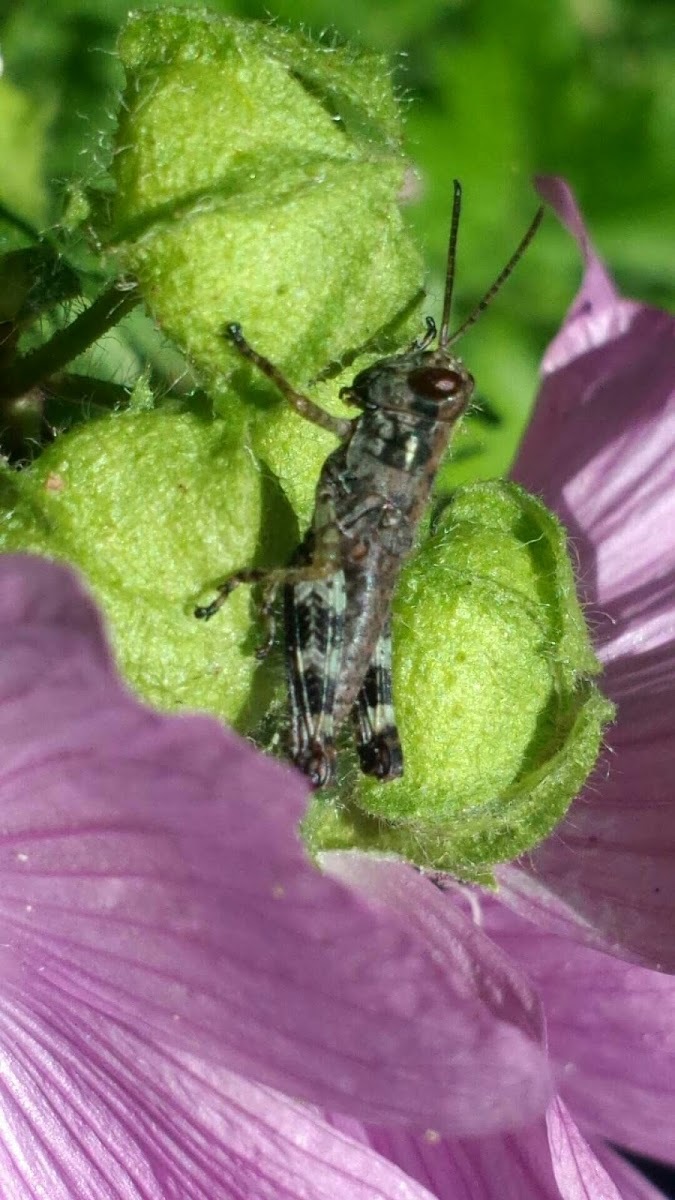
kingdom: Animalia
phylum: Arthropoda
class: Insecta
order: Orthoptera
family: Acrididae
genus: Melanoplus
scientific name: Melanoplus punctulatus
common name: Pine-tree spur-throat grasshopper
